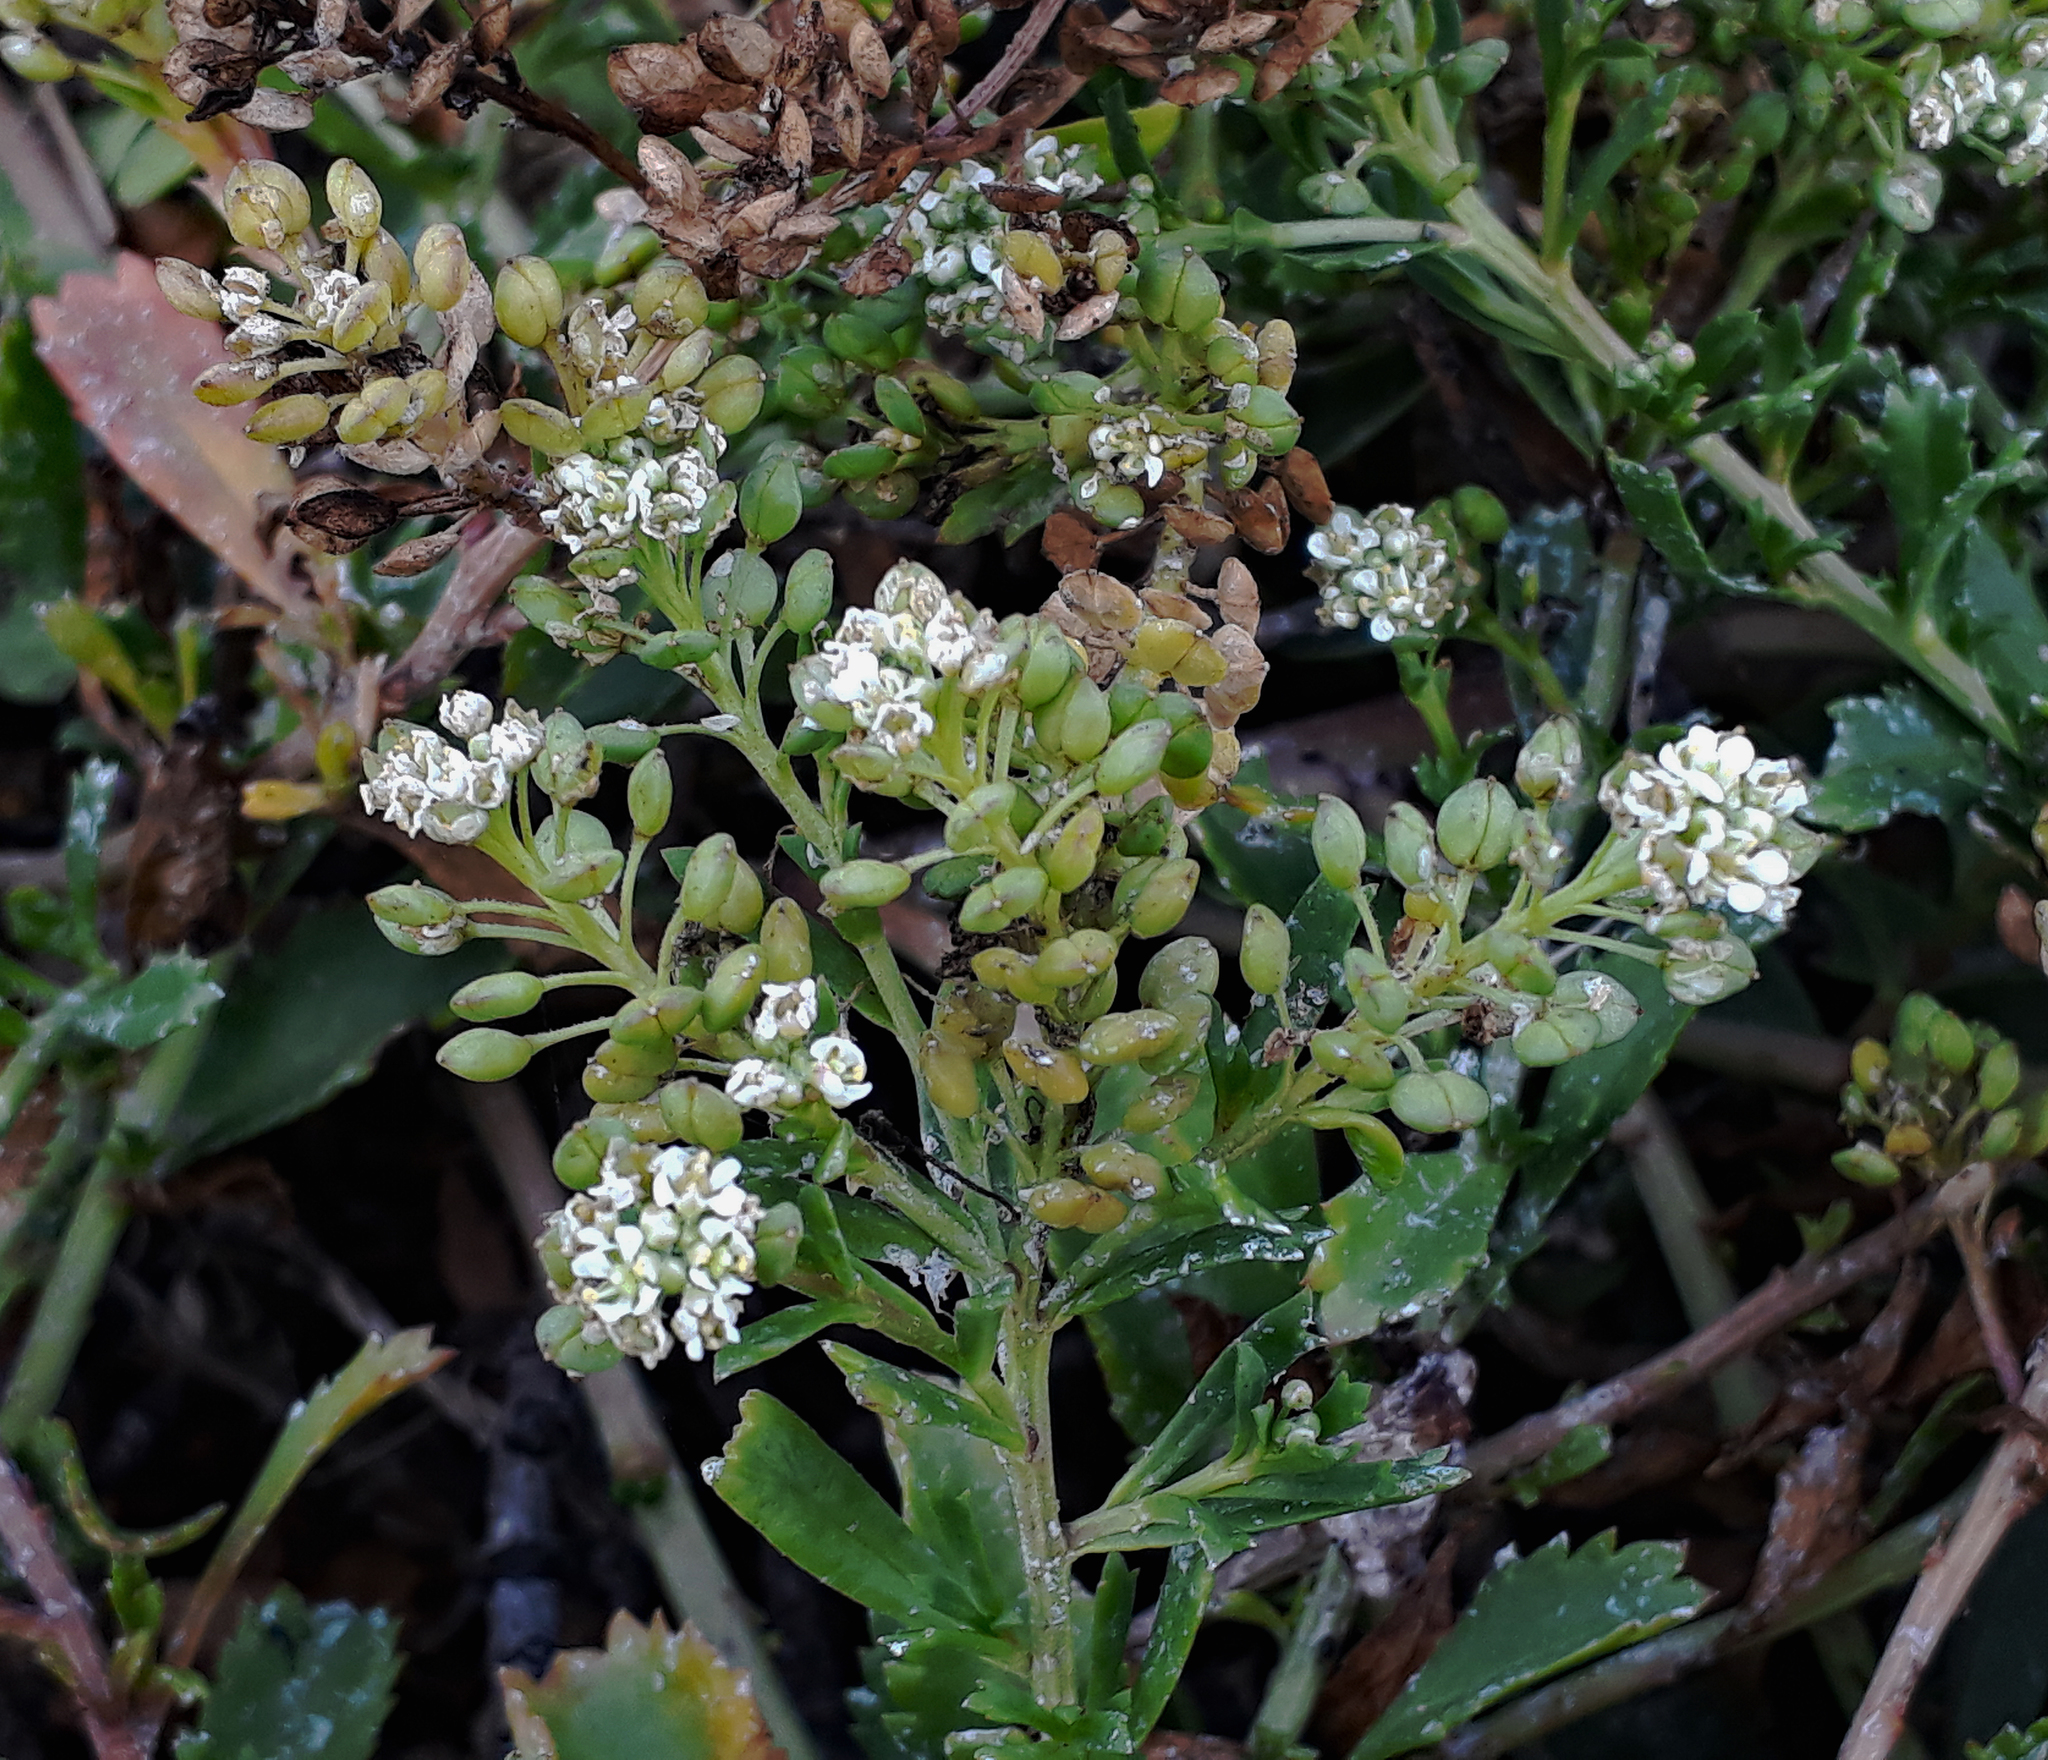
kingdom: Plantae
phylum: Tracheophyta
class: Magnoliopsida
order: Brassicales
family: Brassicaceae
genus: Lepidium
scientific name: Lepidium rekohuense
